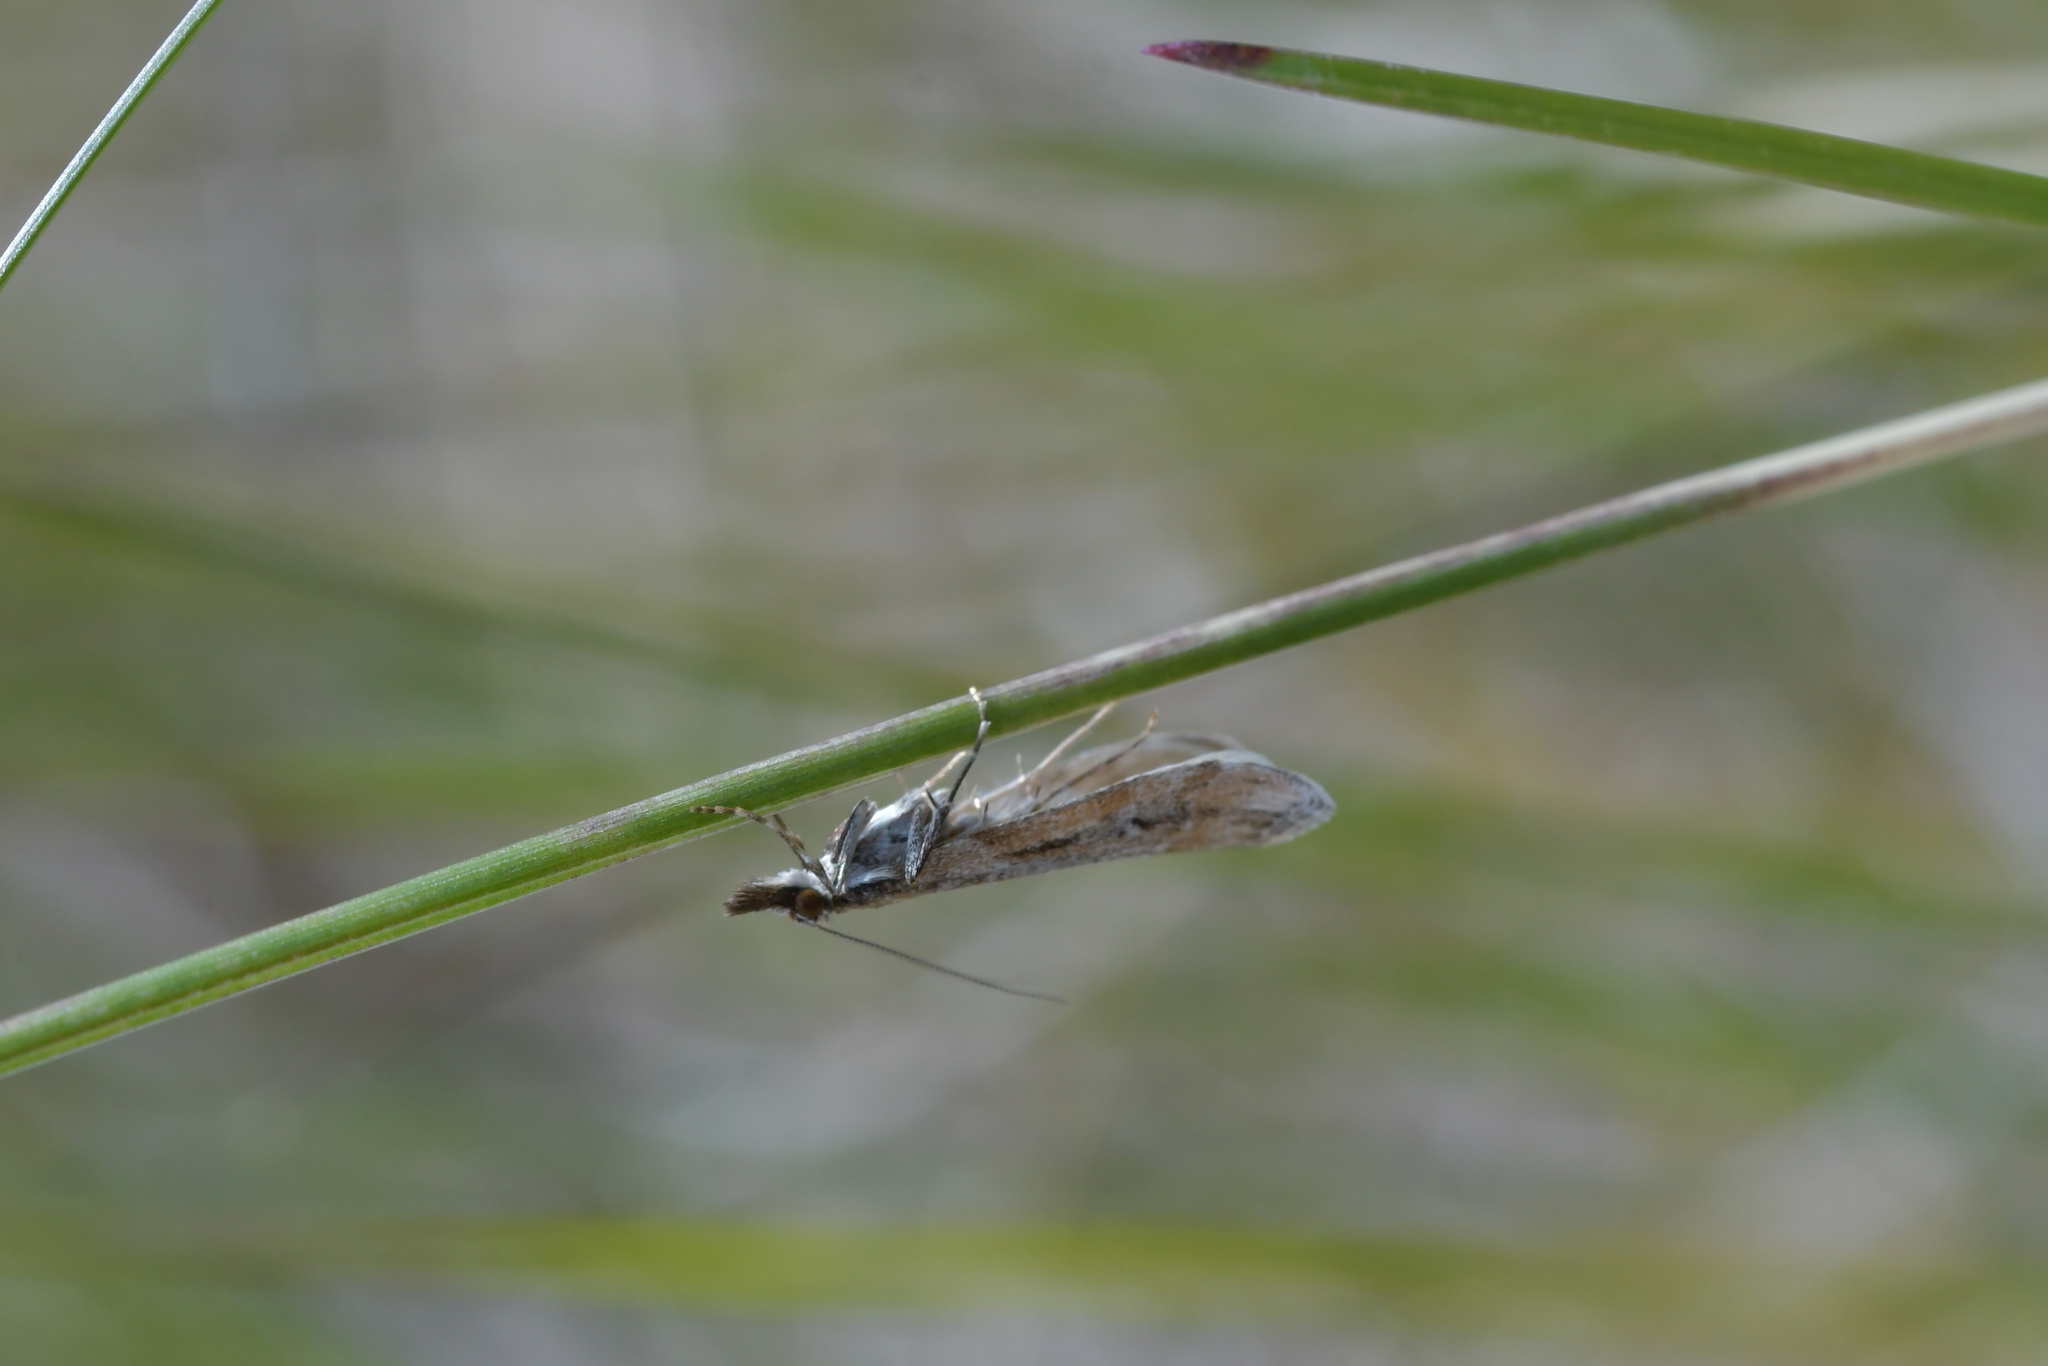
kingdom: Animalia
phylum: Arthropoda
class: Insecta
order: Lepidoptera
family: Crambidae
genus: Eudonia
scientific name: Eudonia chalara
